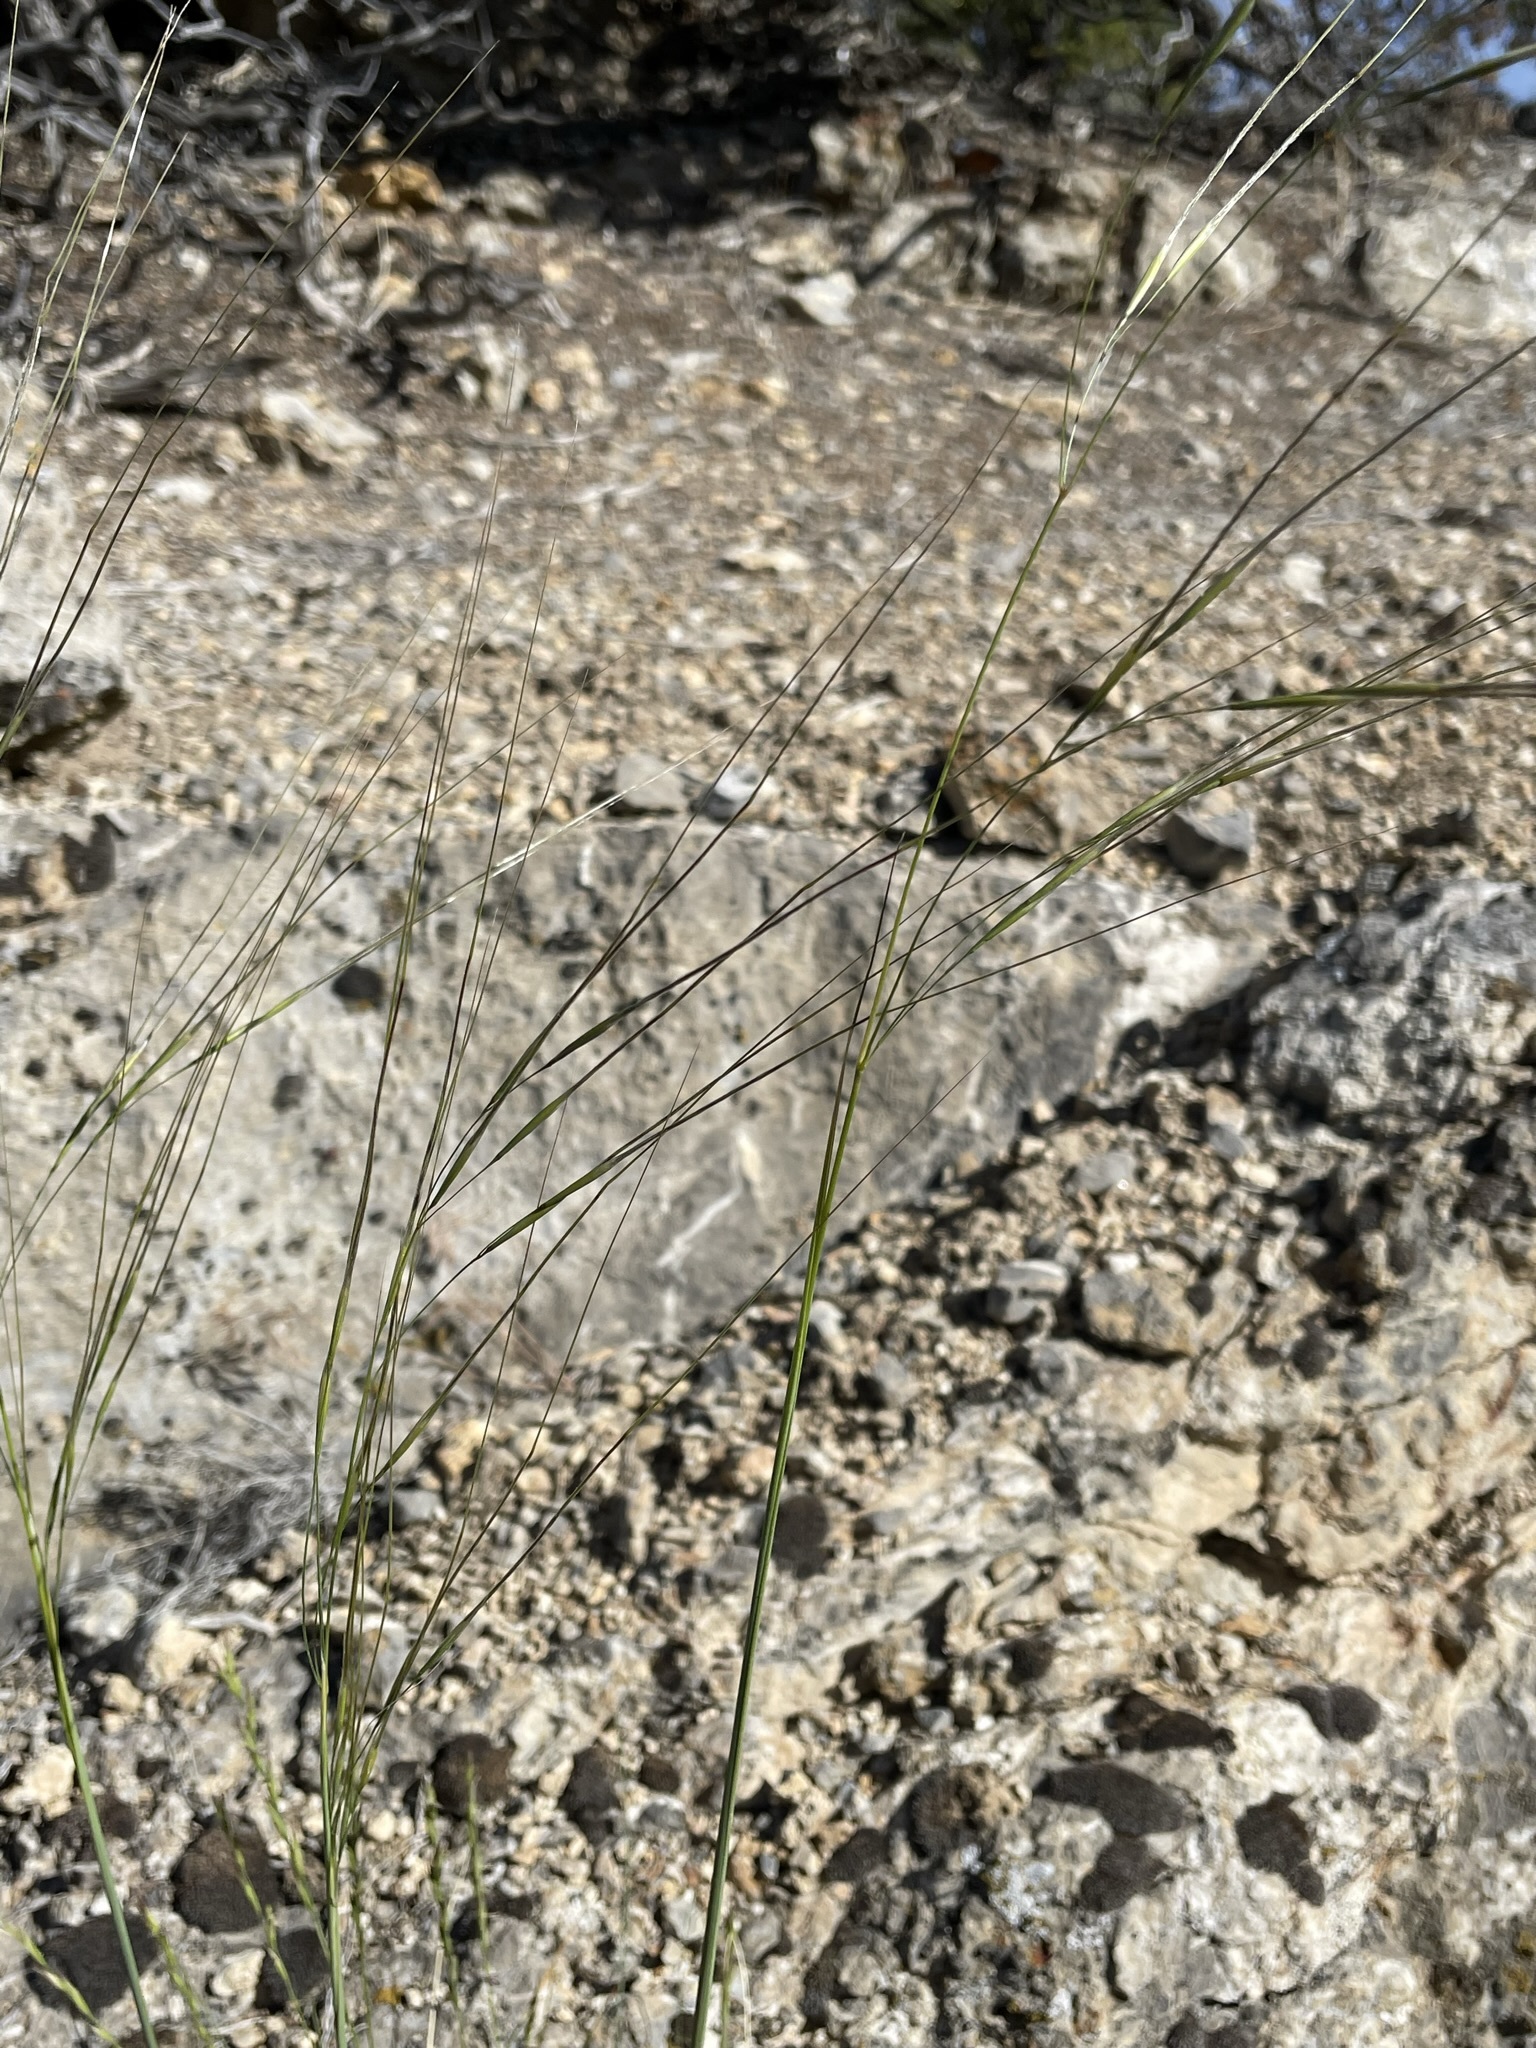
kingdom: Plantae
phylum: Tracheophyta
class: Liliopsida
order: Poales
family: Poaceae
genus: Hesperostipa
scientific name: Hesperostipa comata
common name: Needle-and-thread grass
